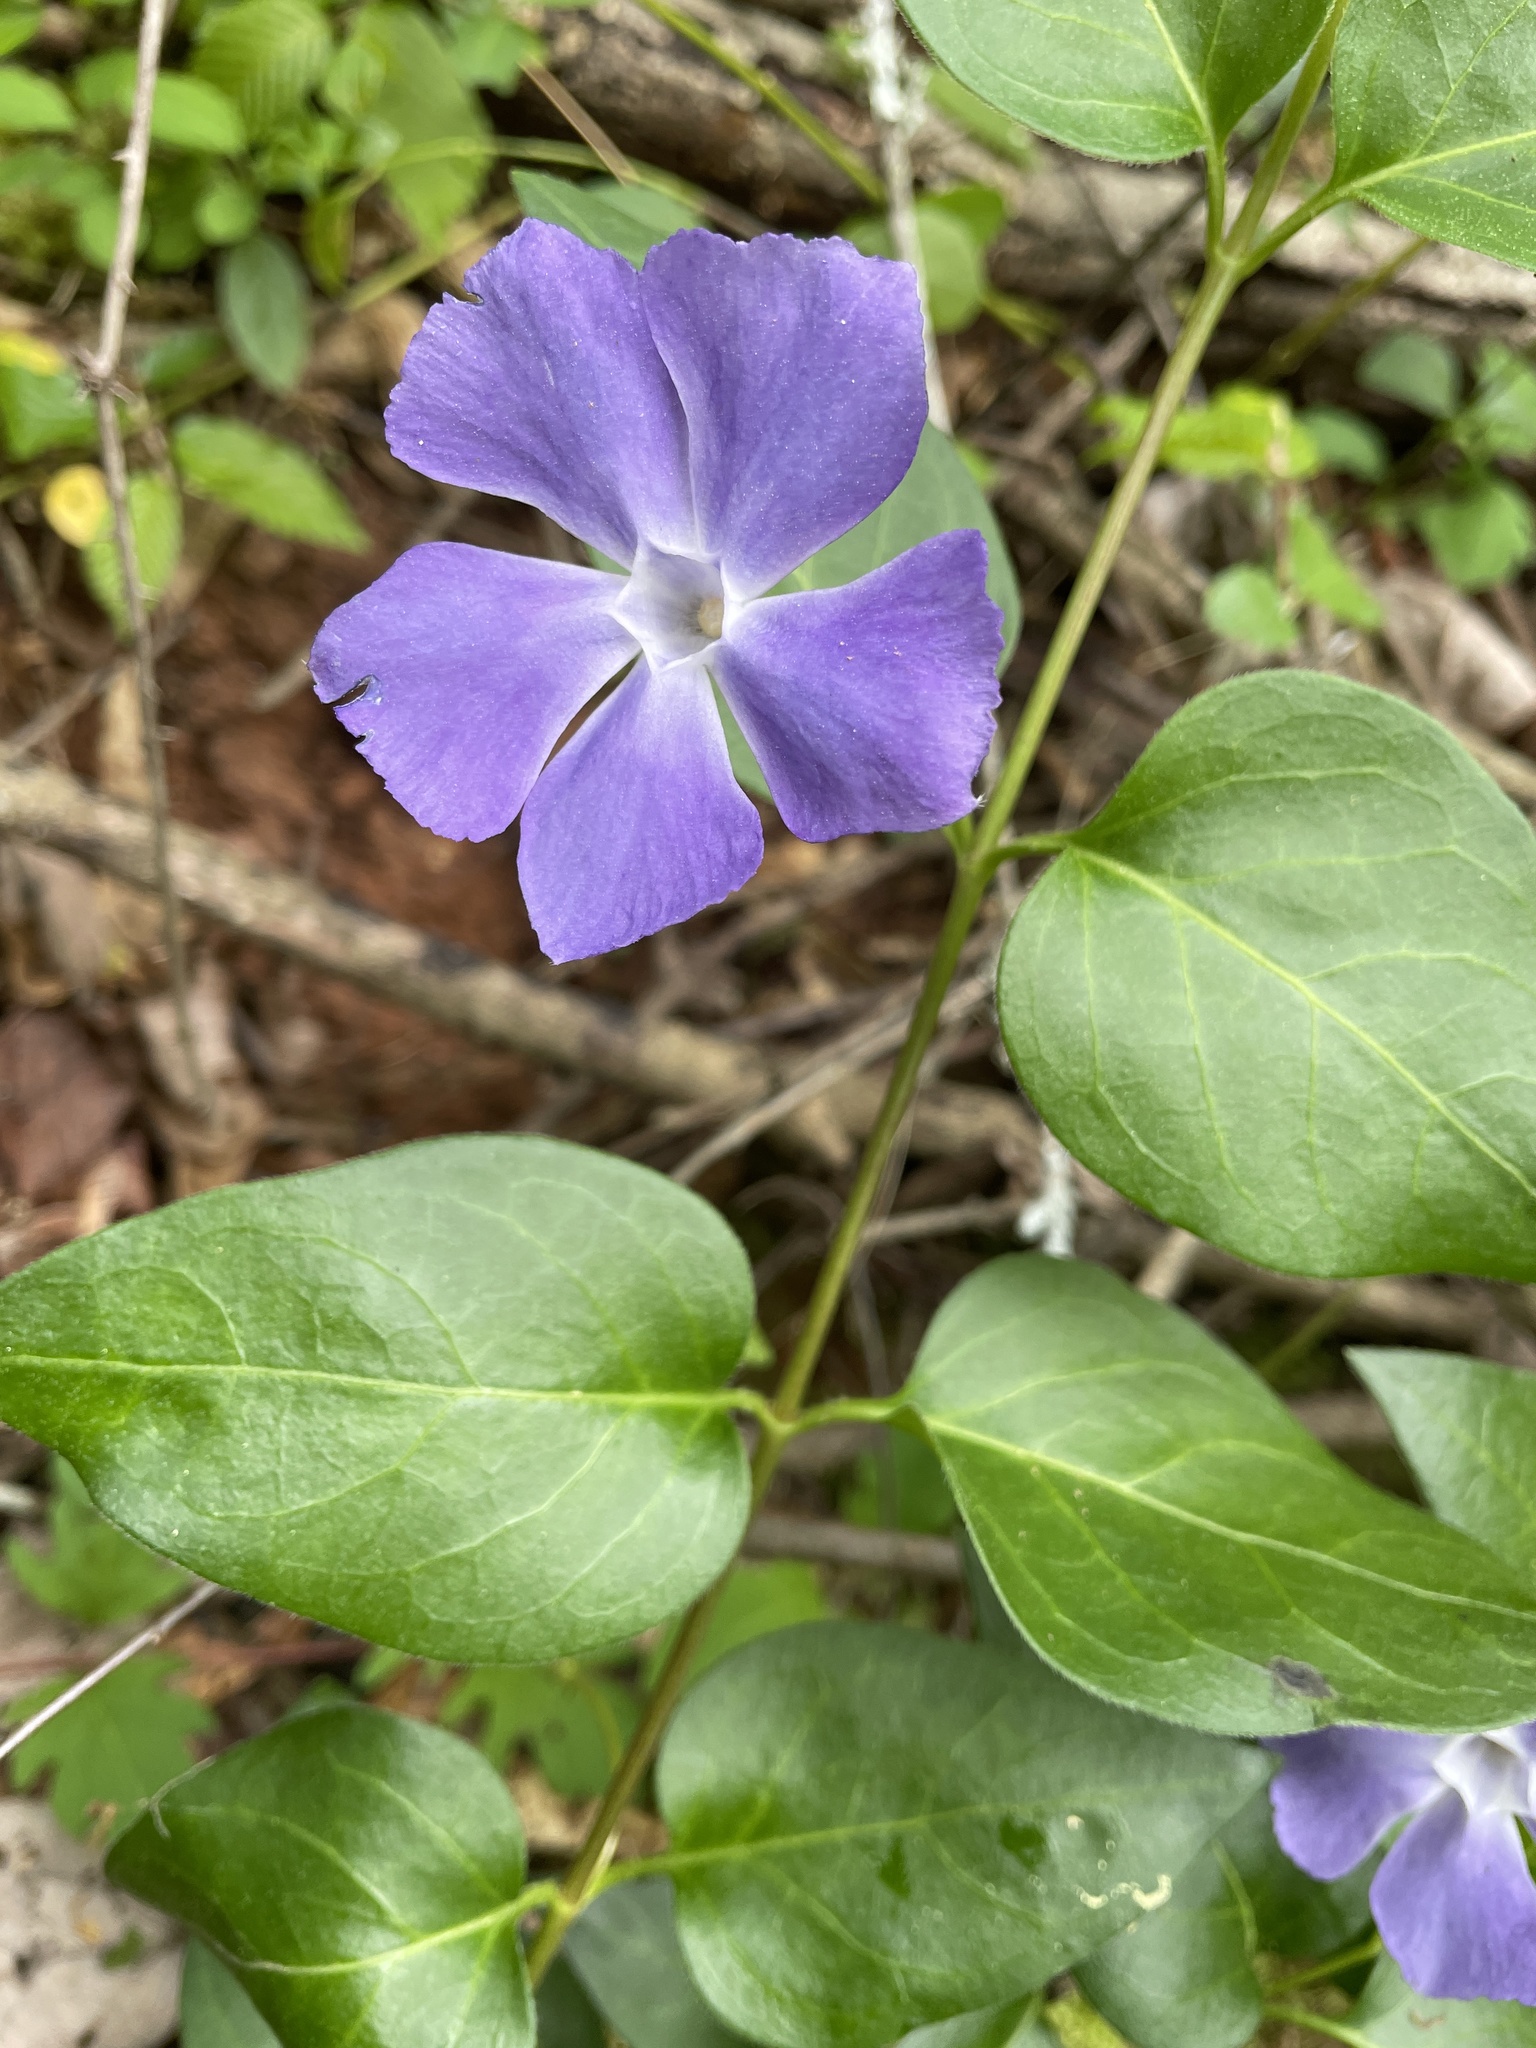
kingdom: Plantae
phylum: Tracheophyta
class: Magnoliopsida
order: Gentianales
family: Apocynaceae
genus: Vinca
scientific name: Vinca major
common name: Greater periwinkle
